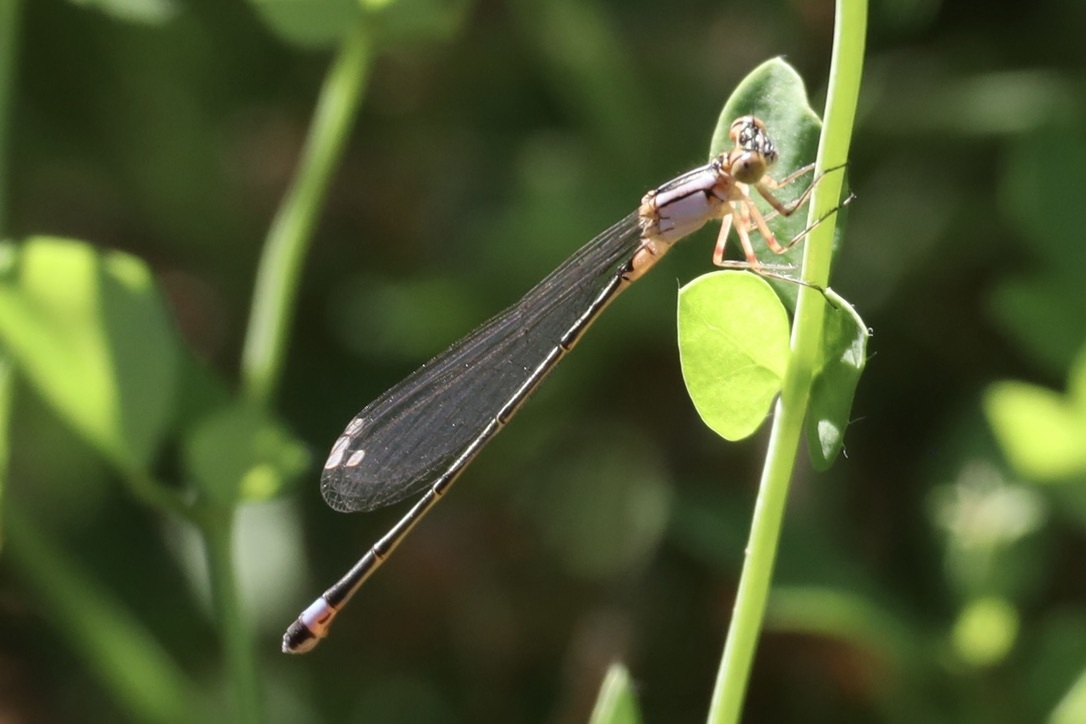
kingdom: Animalia
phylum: Arthropoda
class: Insecta
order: Odonata
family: Coenagrionidae
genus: Ischnura
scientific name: Ischnura cervula
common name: Pacific forktail
